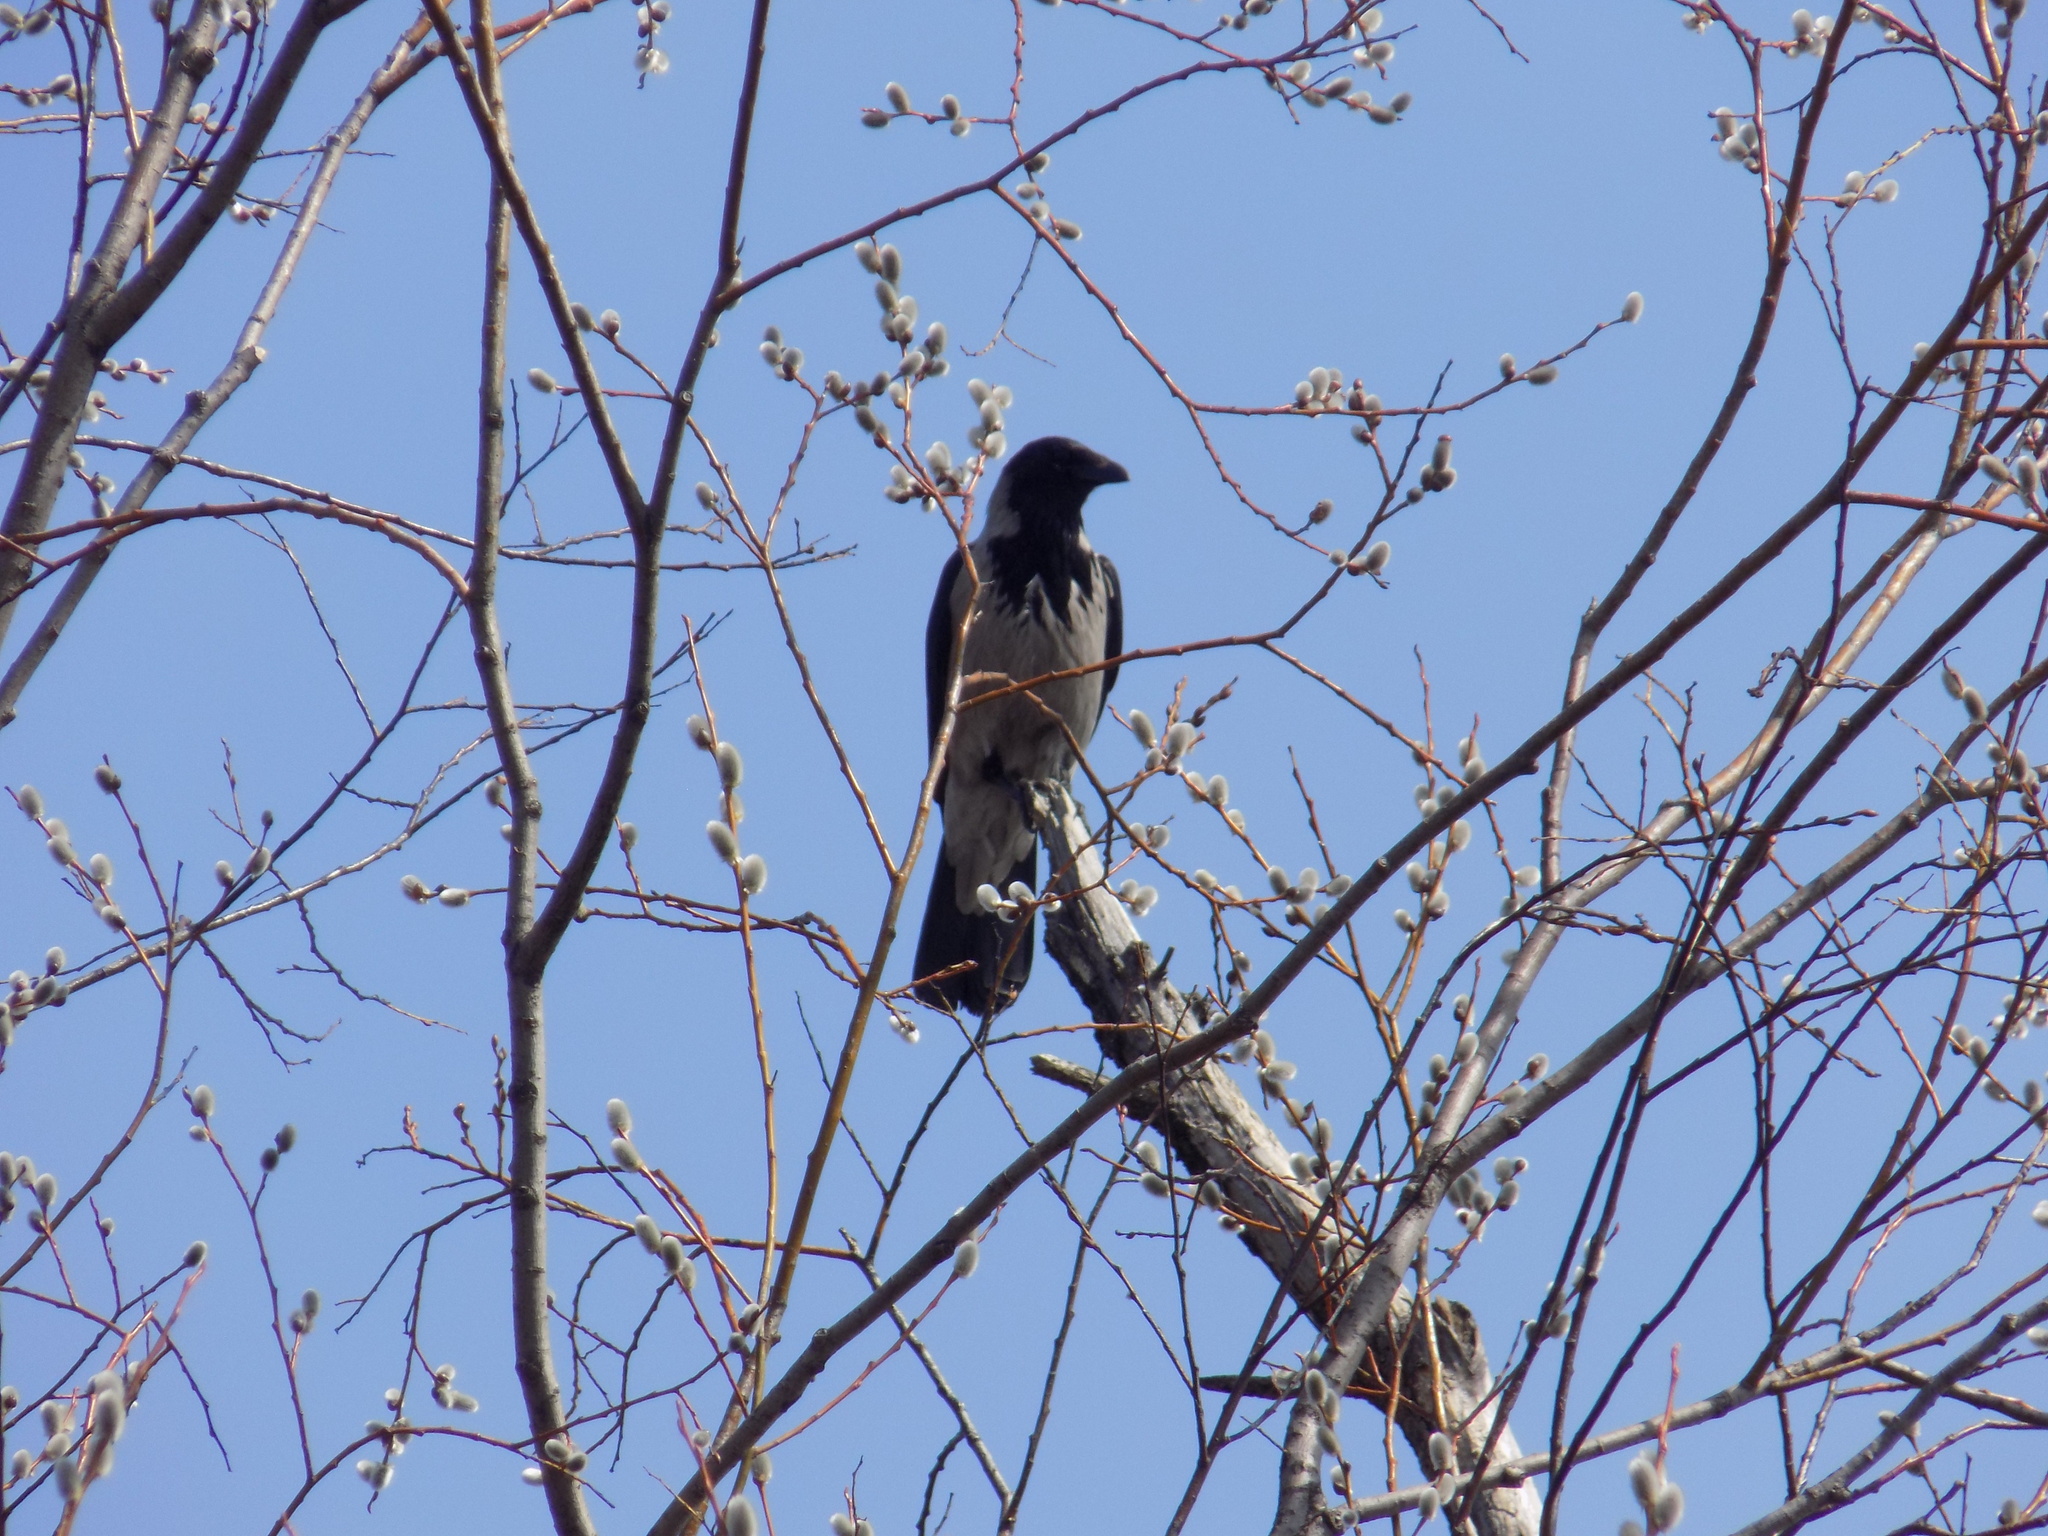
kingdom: Animalia
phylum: Chordata
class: Aves
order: Passeriformes
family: Corvidae
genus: Corvus
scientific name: Corvus cornix
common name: Hooded crow
